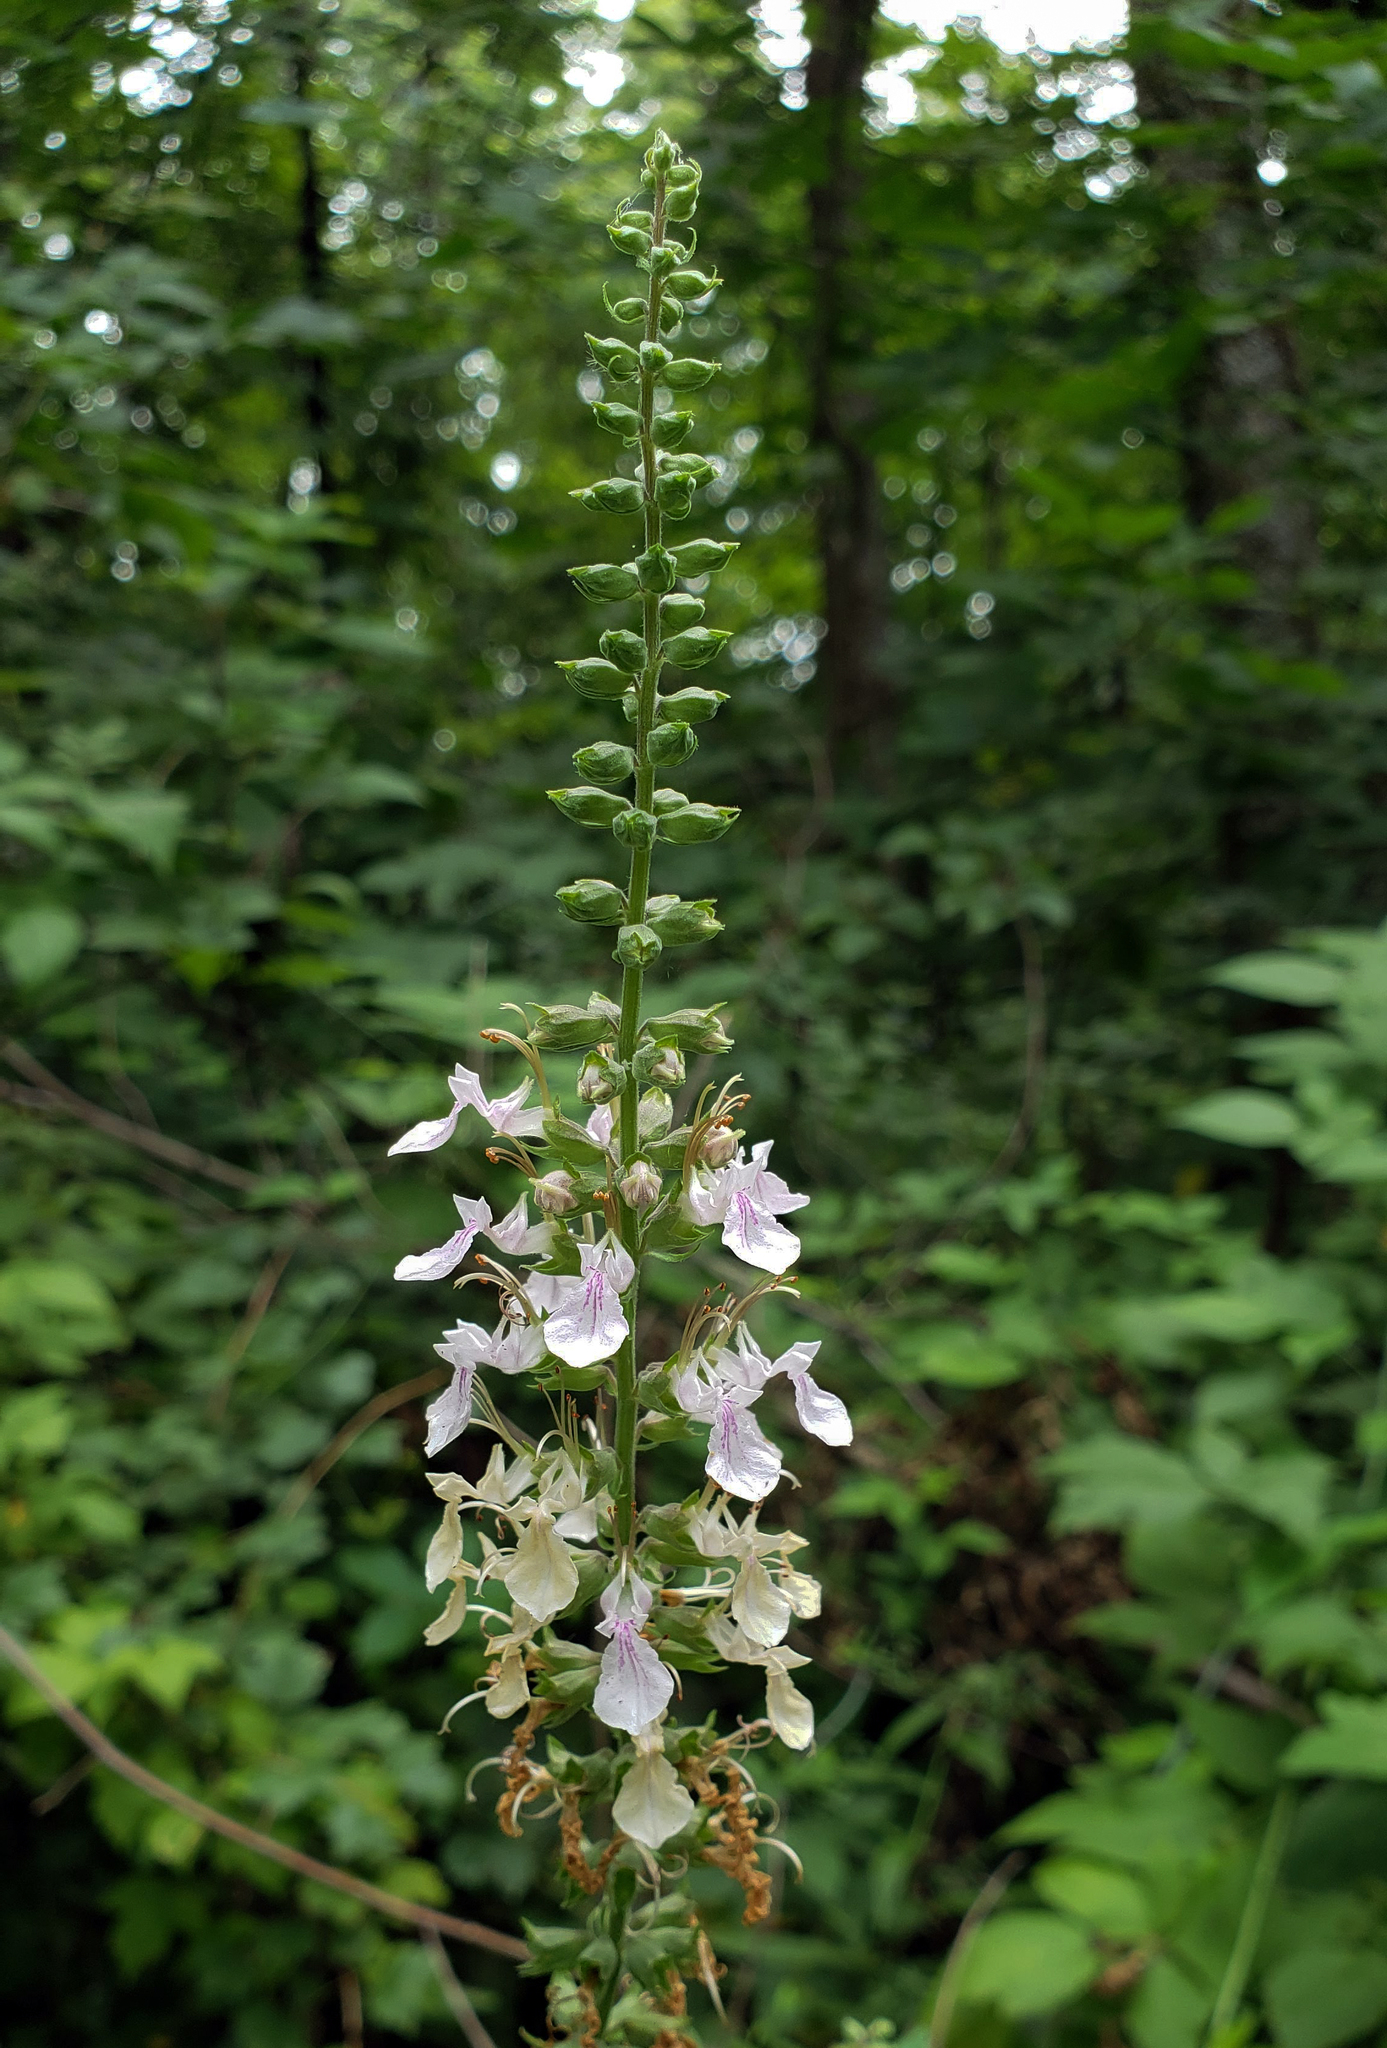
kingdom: Plantae
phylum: Tracheophyta
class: Magnoliopsida
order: Lamiales
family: Lamiaceae
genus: Teucrium
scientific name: Teucrium canadense
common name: American germander
